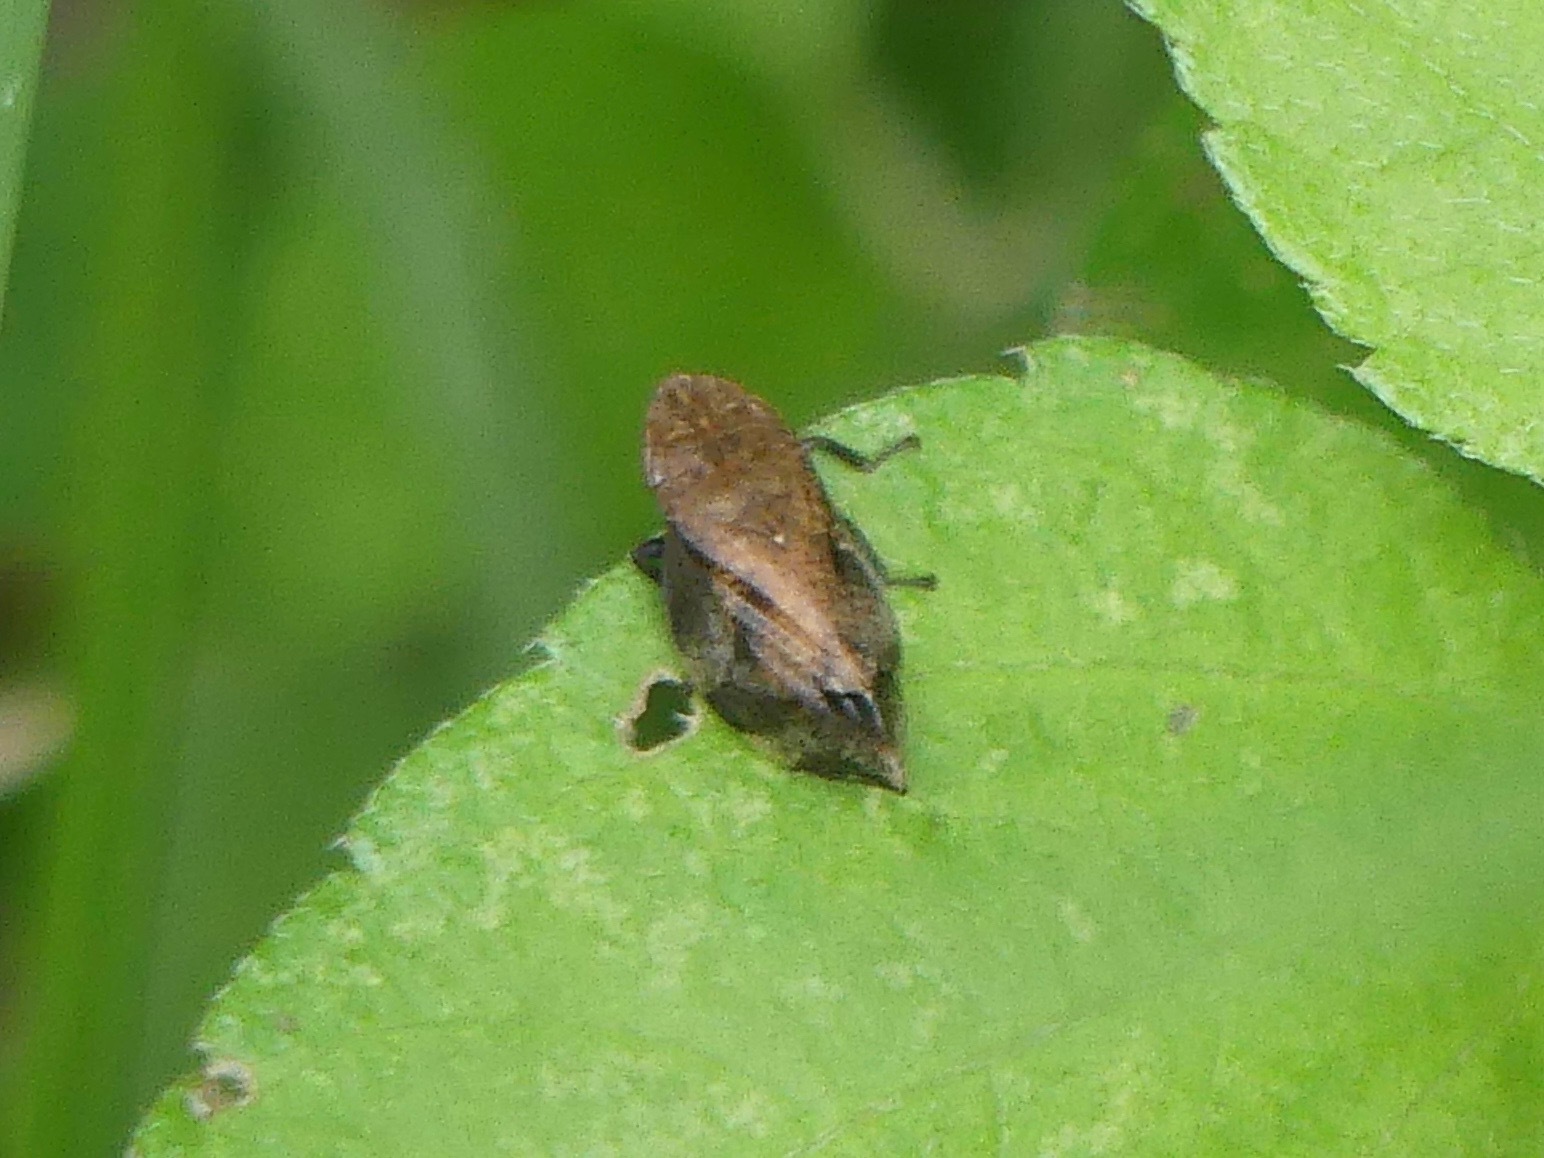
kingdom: Animalia
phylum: Arthropoda
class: Insecta
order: Hemiptera
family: Aphrophoridae
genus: Lepyronia
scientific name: Lepyronia quadrangularis
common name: Diamond-backed spittlebug
